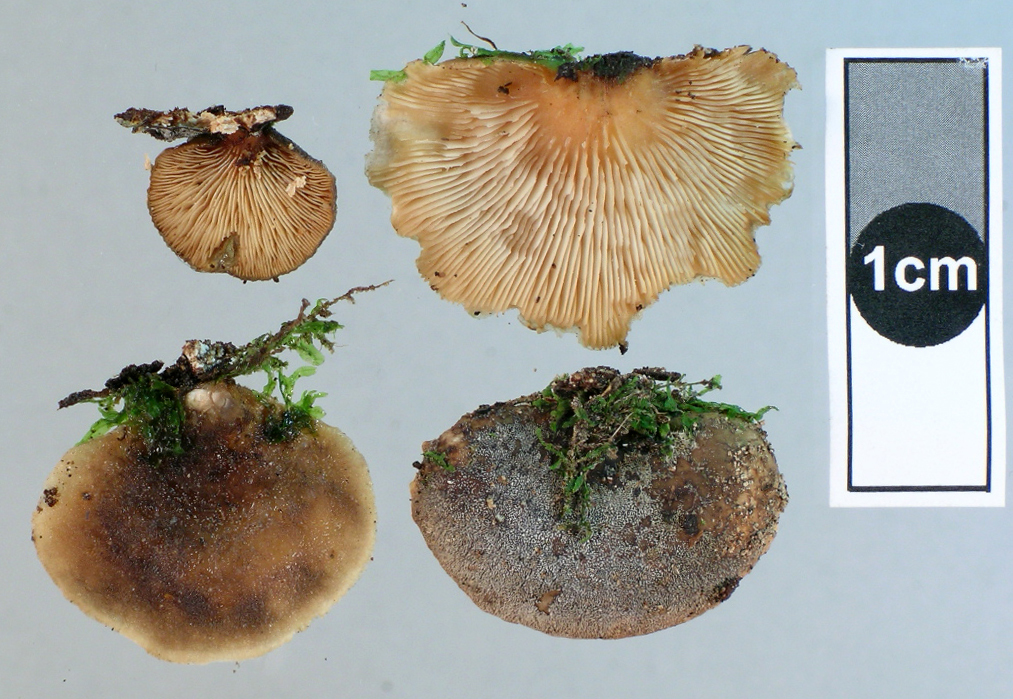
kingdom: Fungi
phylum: Basidiomycota
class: Agaricomycetes
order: Agaricales
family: Pleurotaceae
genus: Hohenbuehelia
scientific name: Hohenbuehelia nothofaginea
